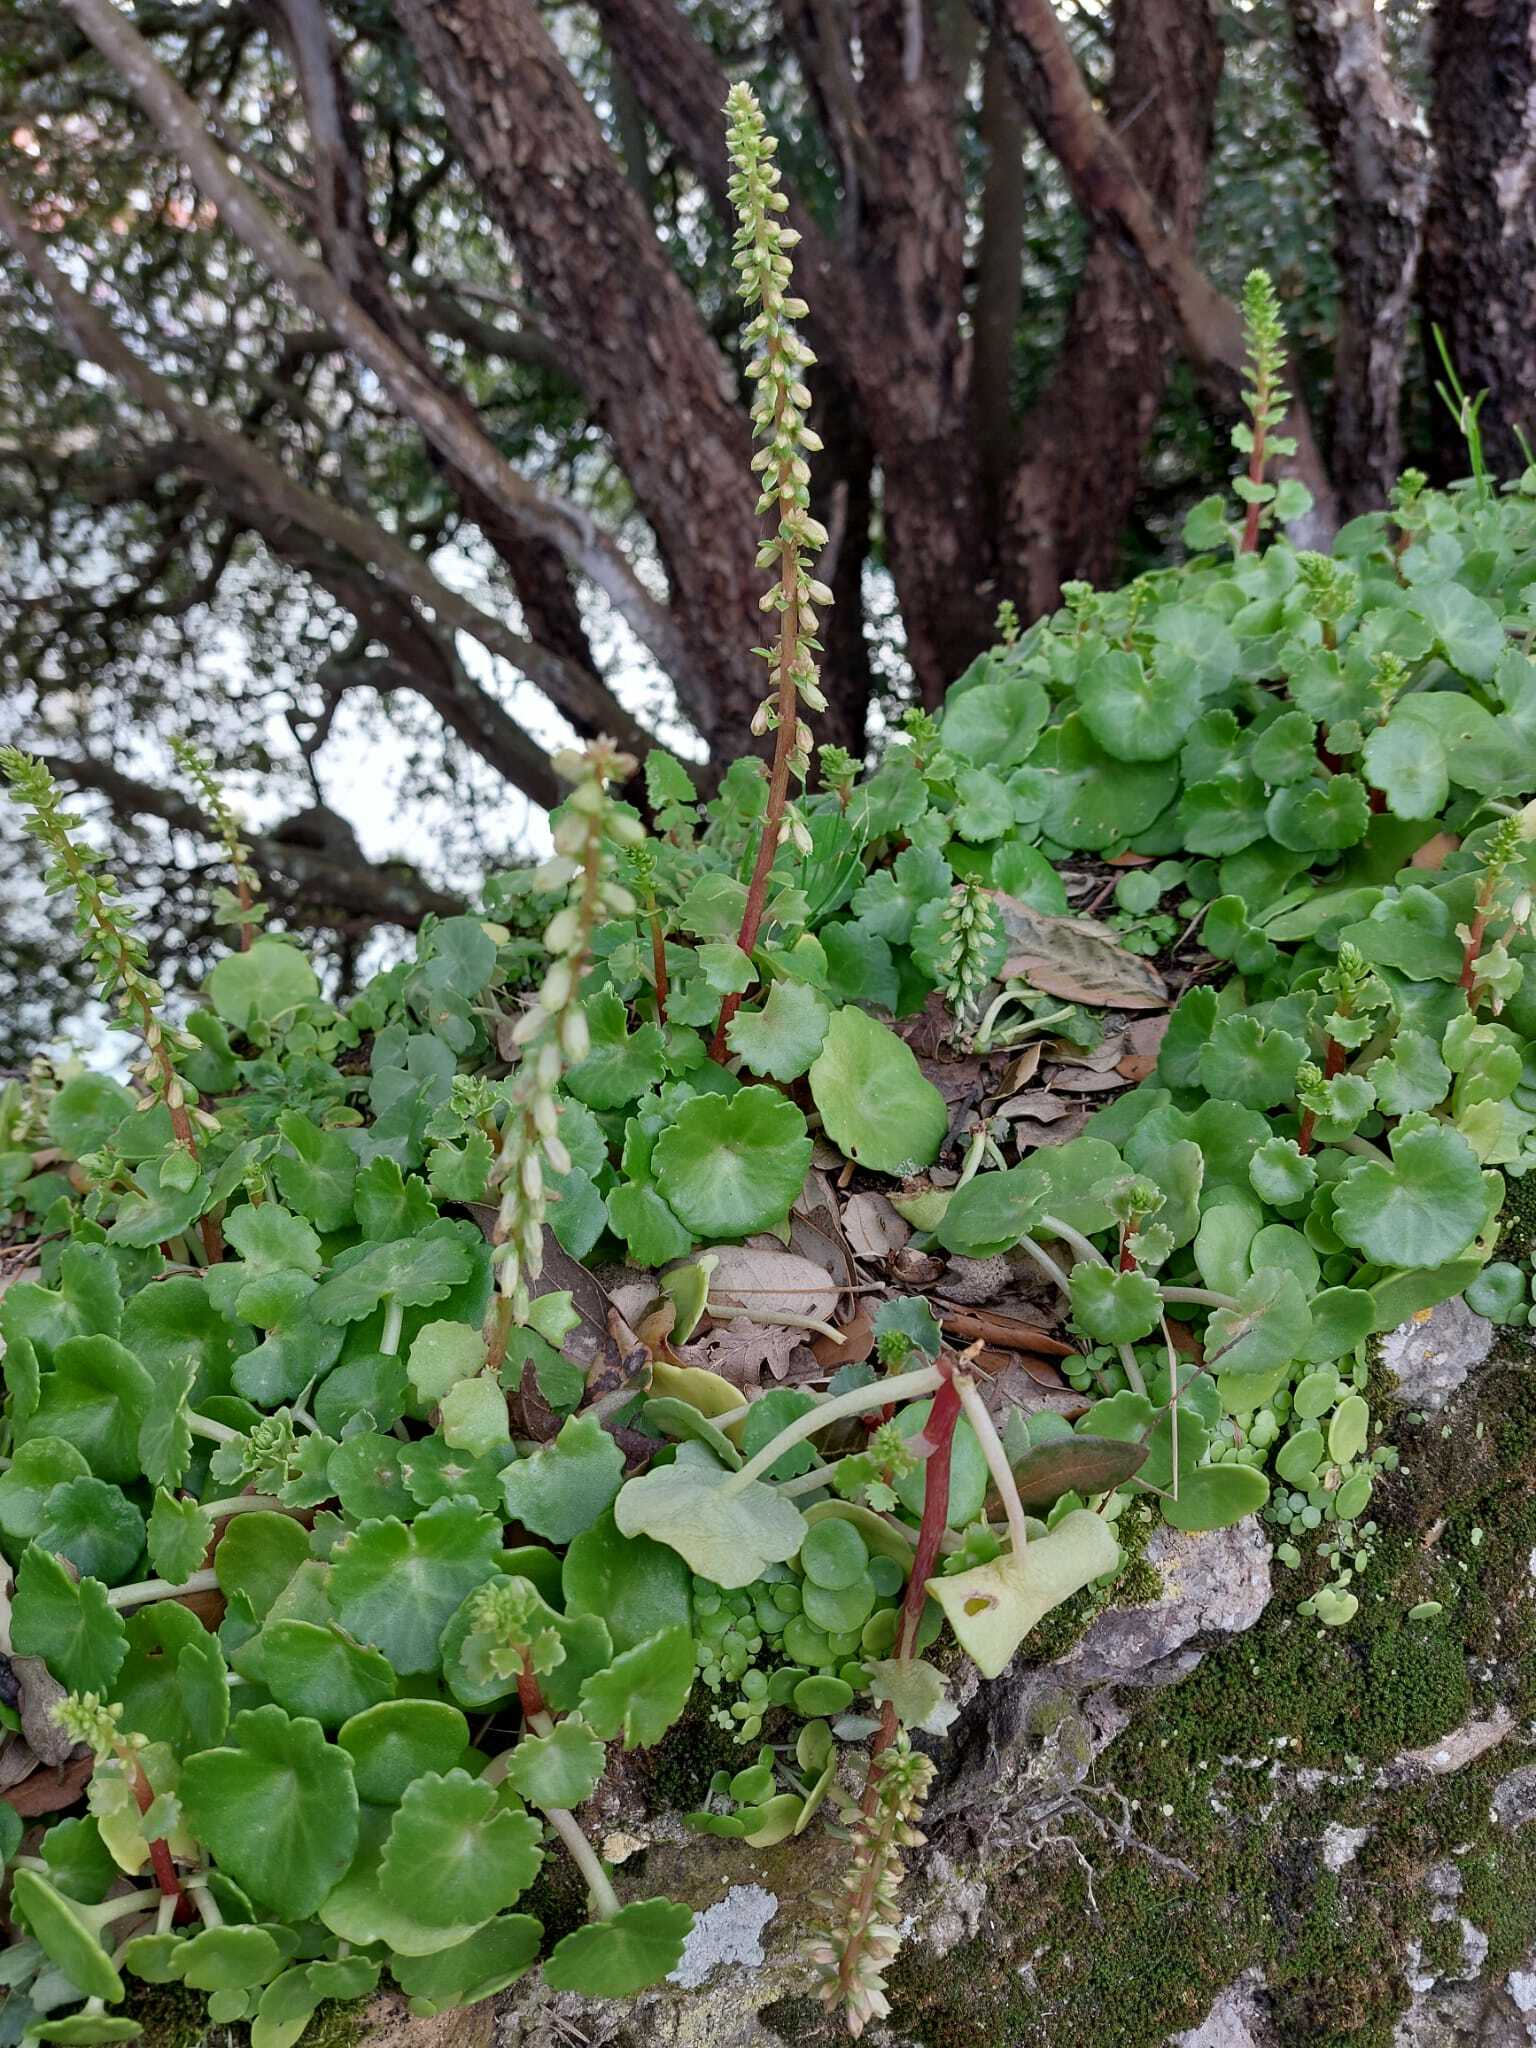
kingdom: Plantae
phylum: Tracheophyta
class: Magnoliopsida
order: Saxifragales
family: Crassulaceae
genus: Umbilicus
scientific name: Umbilicus rupestris
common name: Navelwort
